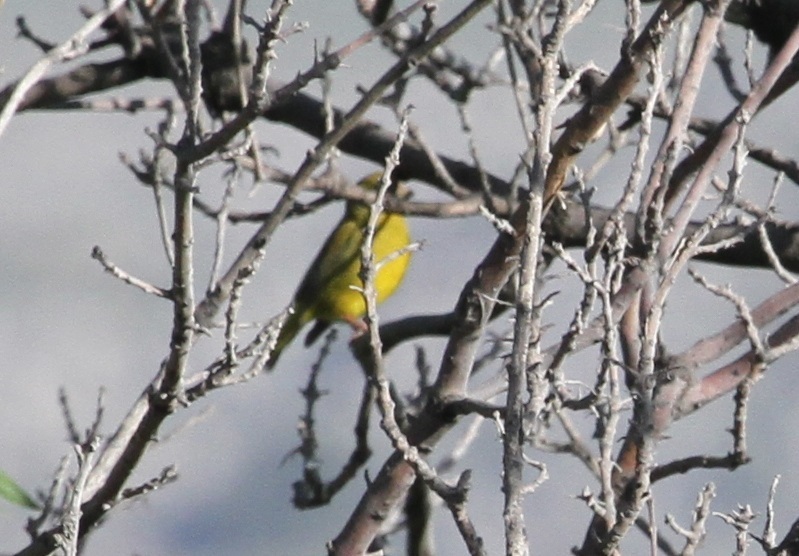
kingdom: Plantae
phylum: Tracheophyta
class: Liliopsida
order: Poales
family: Poaceae
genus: Chloris
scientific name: Chloris chloris
